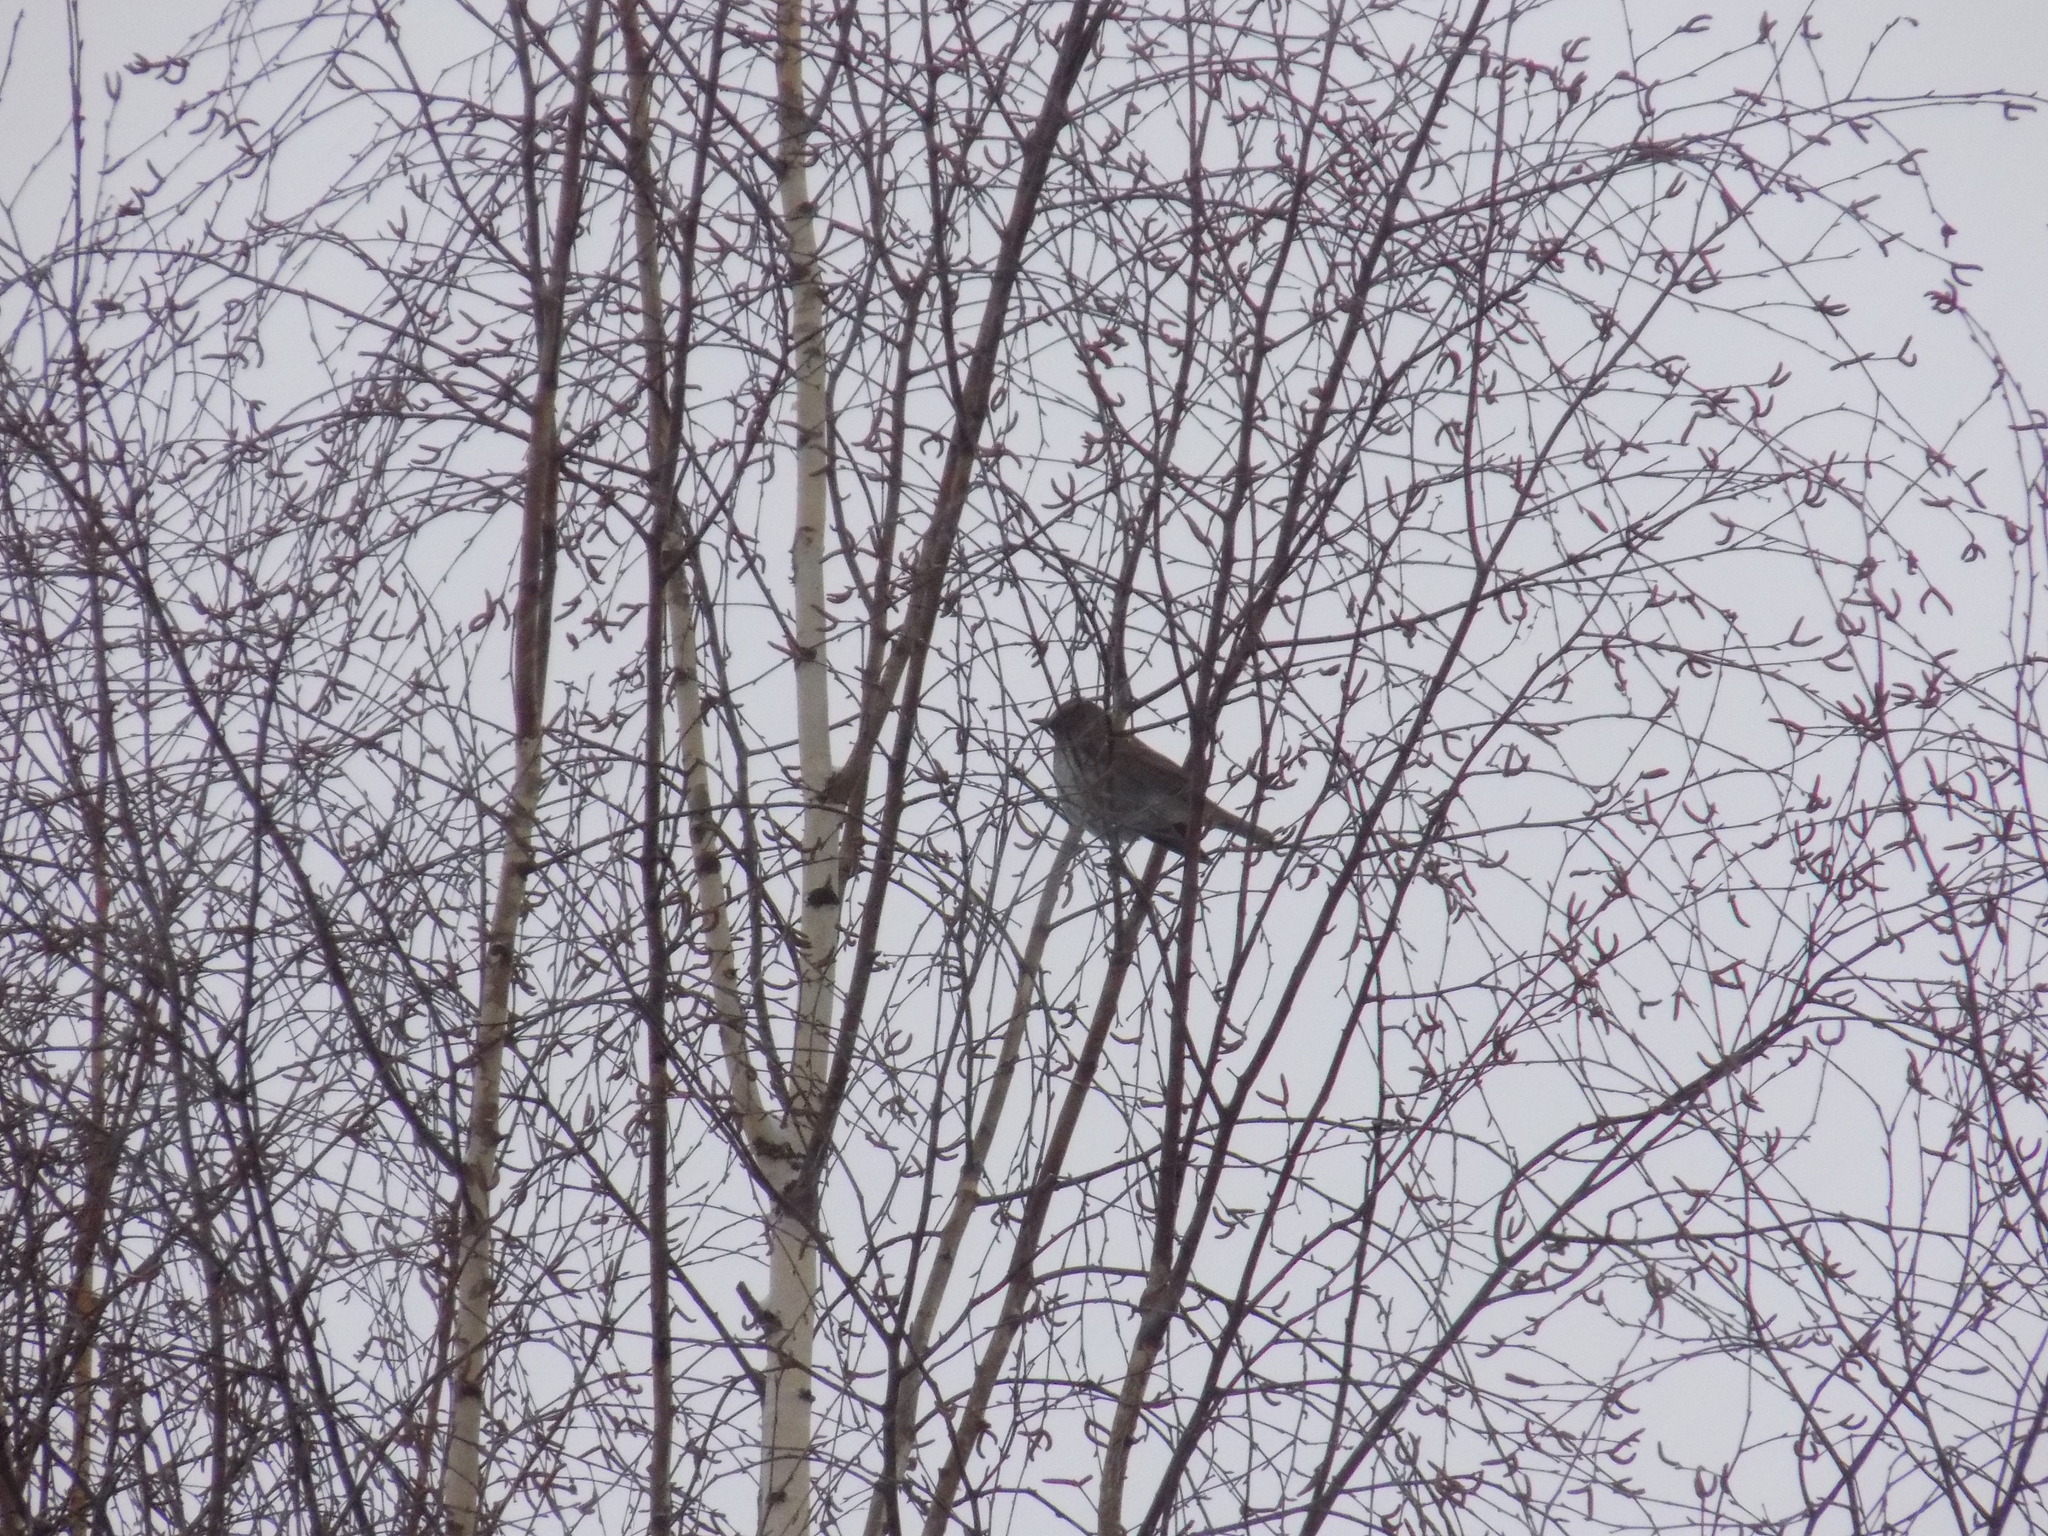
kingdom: Animalia
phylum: Chordata
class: Aves
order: Passeriformes
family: Turdidae
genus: Turdus
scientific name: Turdus atrogularis
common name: Black-throated thrush
